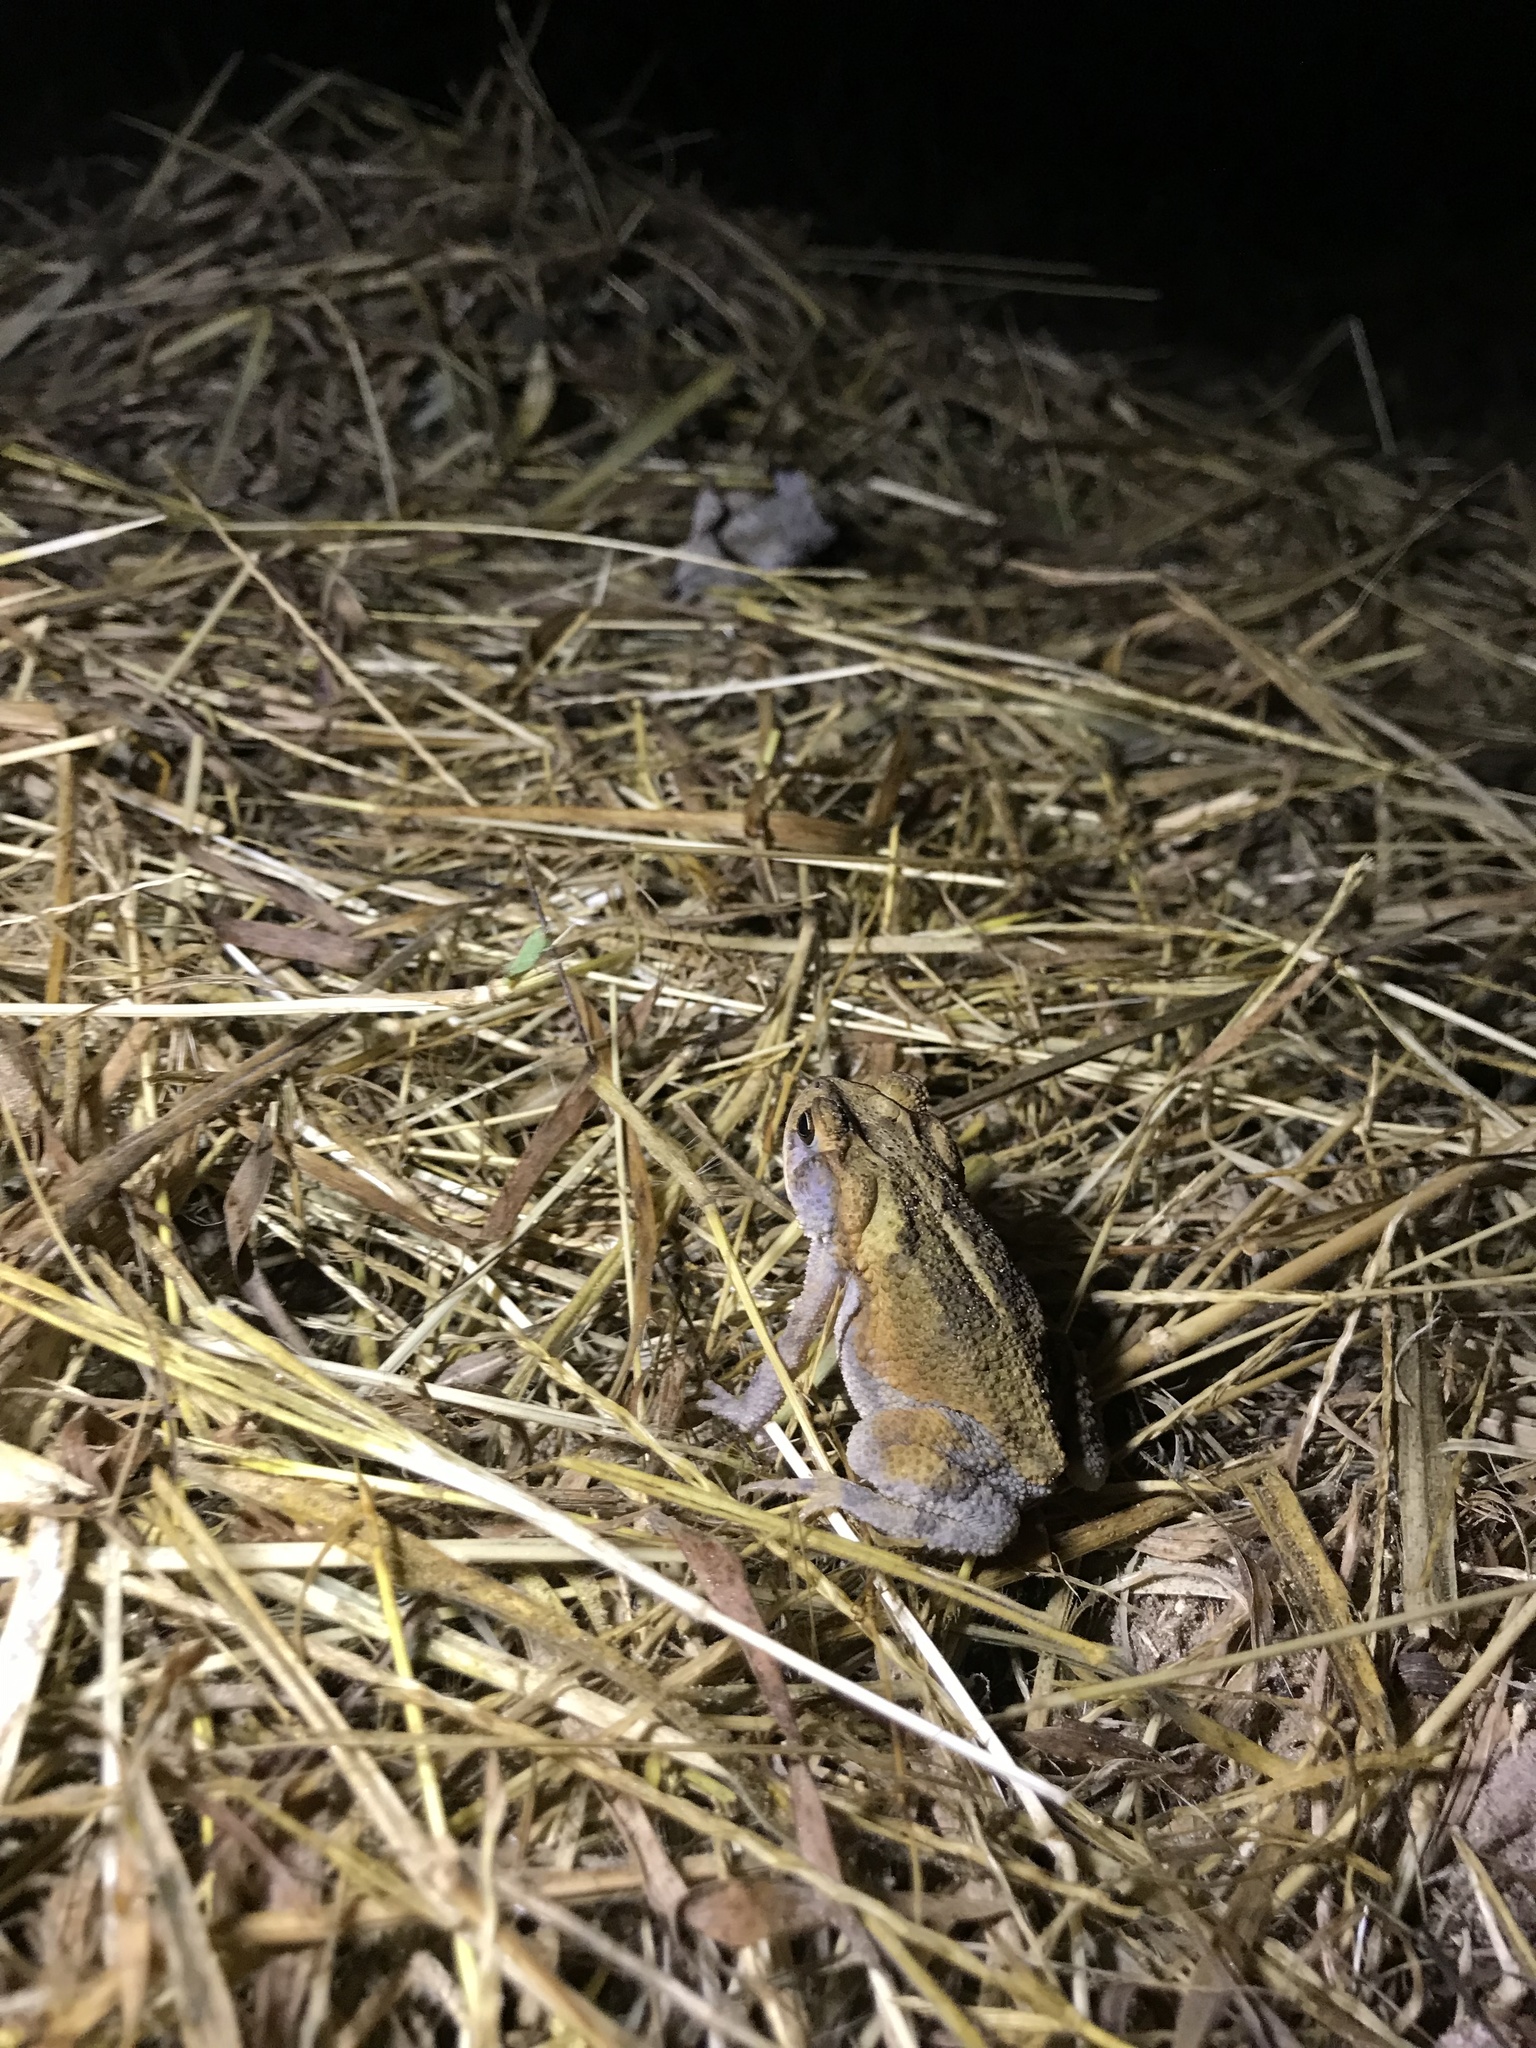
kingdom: Animalia
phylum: Chordata
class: Amphibia
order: Anura
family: Bufonidae
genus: Incilius
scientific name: Incilius nebulifer
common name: Gulf coast toad
